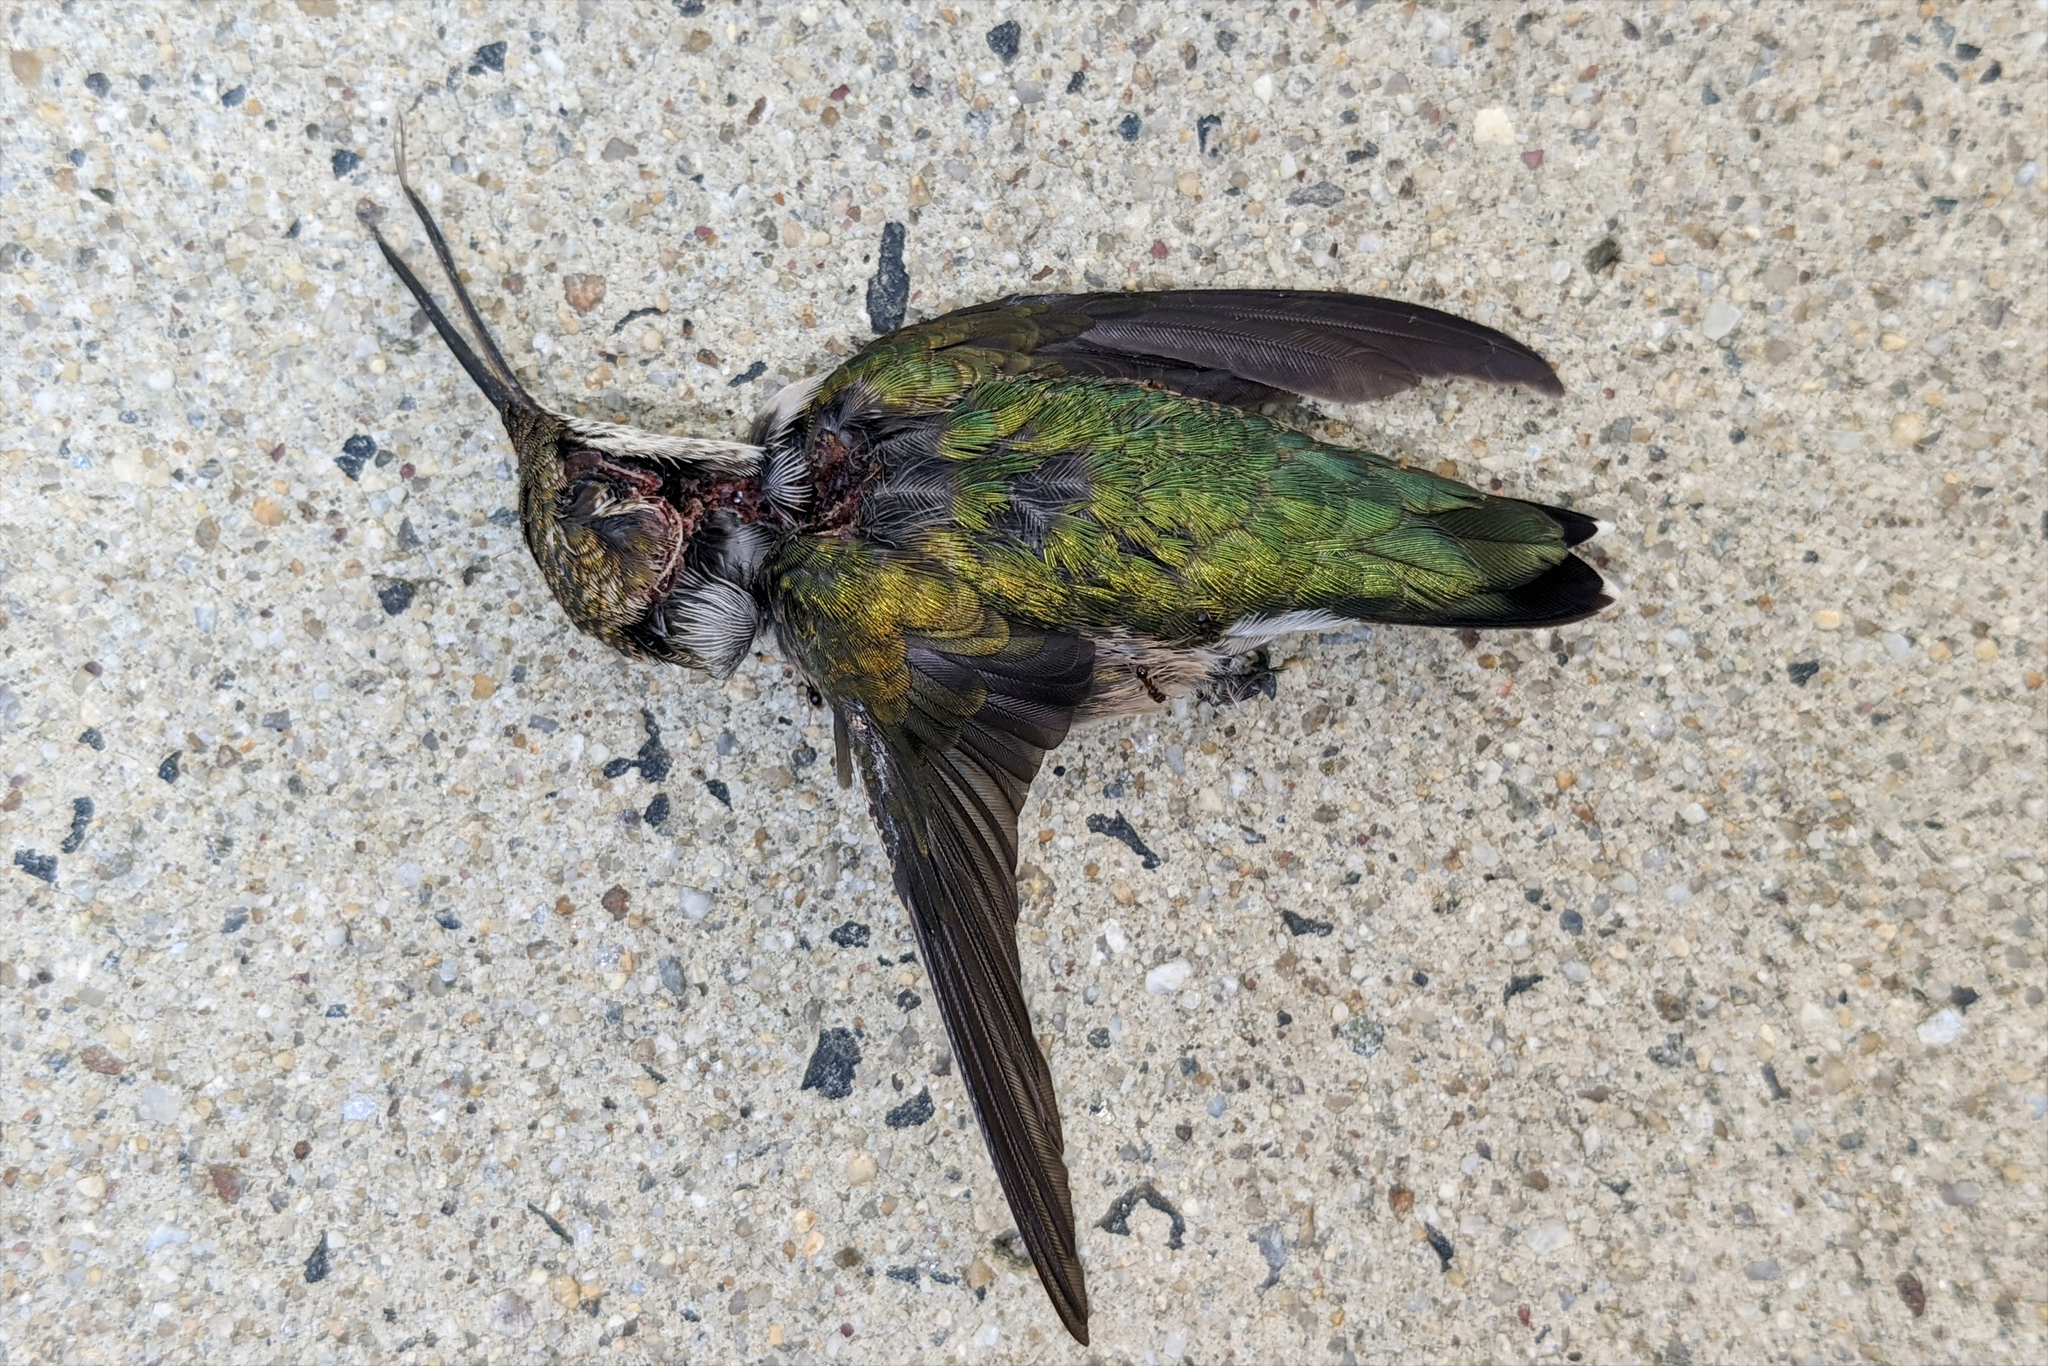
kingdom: Animalia
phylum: Chordata
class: Aves
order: Apodiformes
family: Trochilidae
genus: Archilochus
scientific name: Archilochus colubris
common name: Ruby-throated hummingbird
